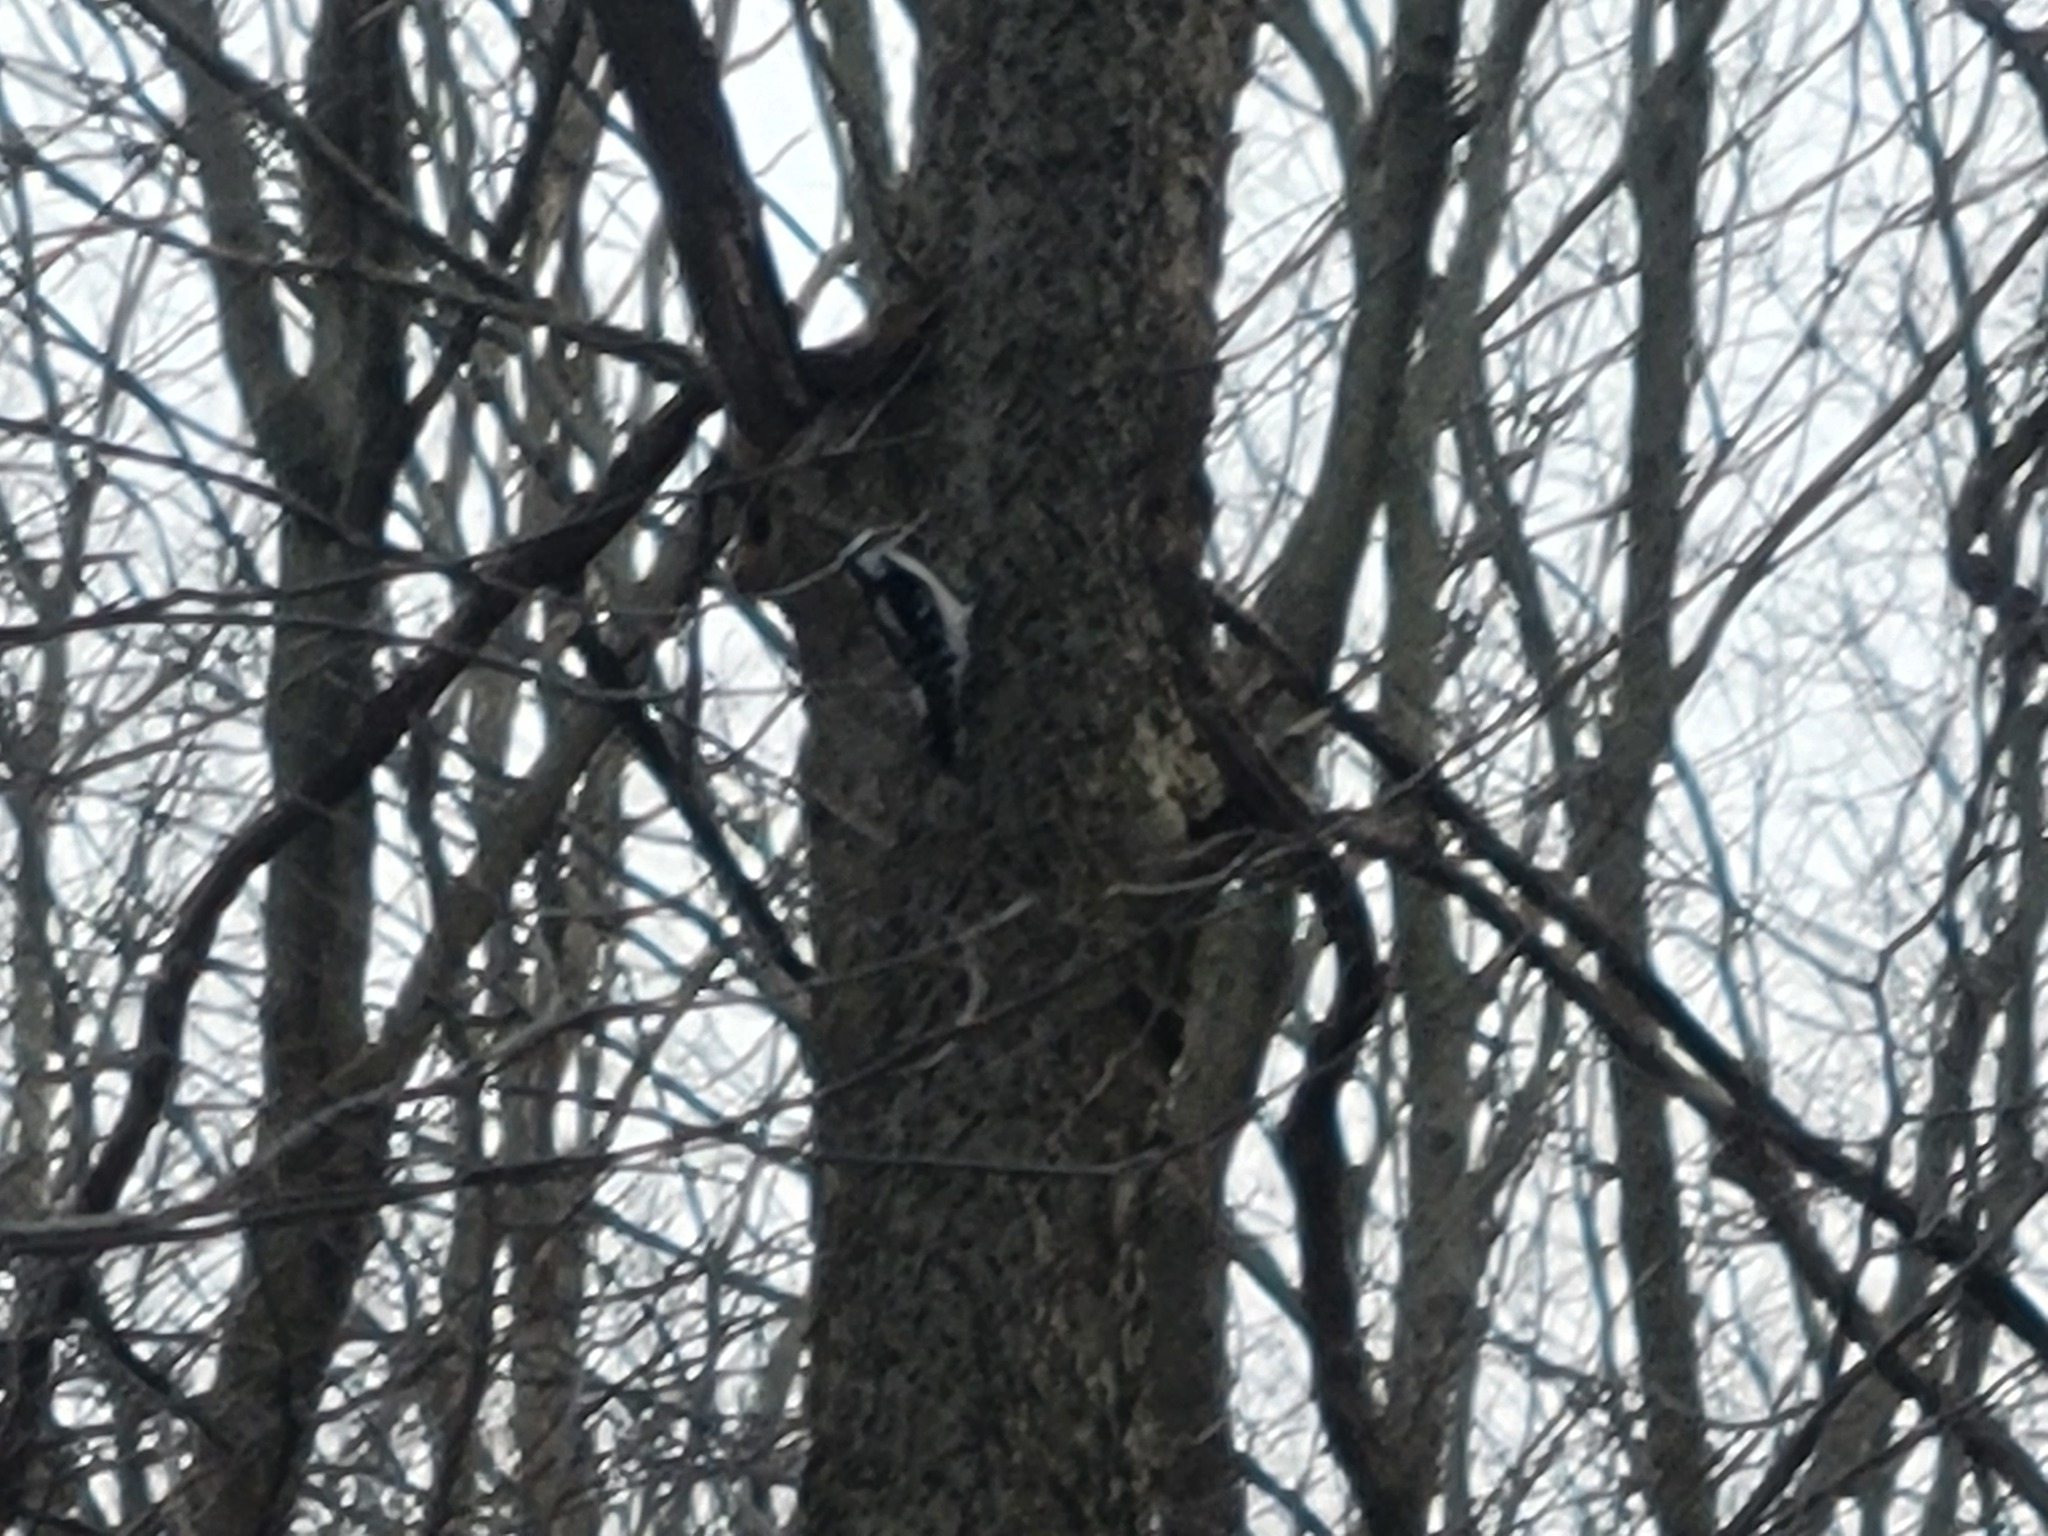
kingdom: Animalia
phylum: Chordata
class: Aves
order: Piciformes
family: Picidae
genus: Dryobates
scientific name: Dryobates pubescens
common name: Downy woodpecker
